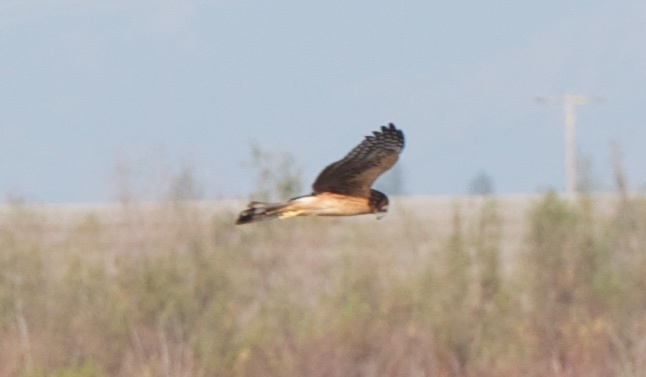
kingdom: Animalia
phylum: Chordata
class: Aves
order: Accipitriformes
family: Accipitridae
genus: Circus
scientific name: Circus cyaneus
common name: Hen harrier
